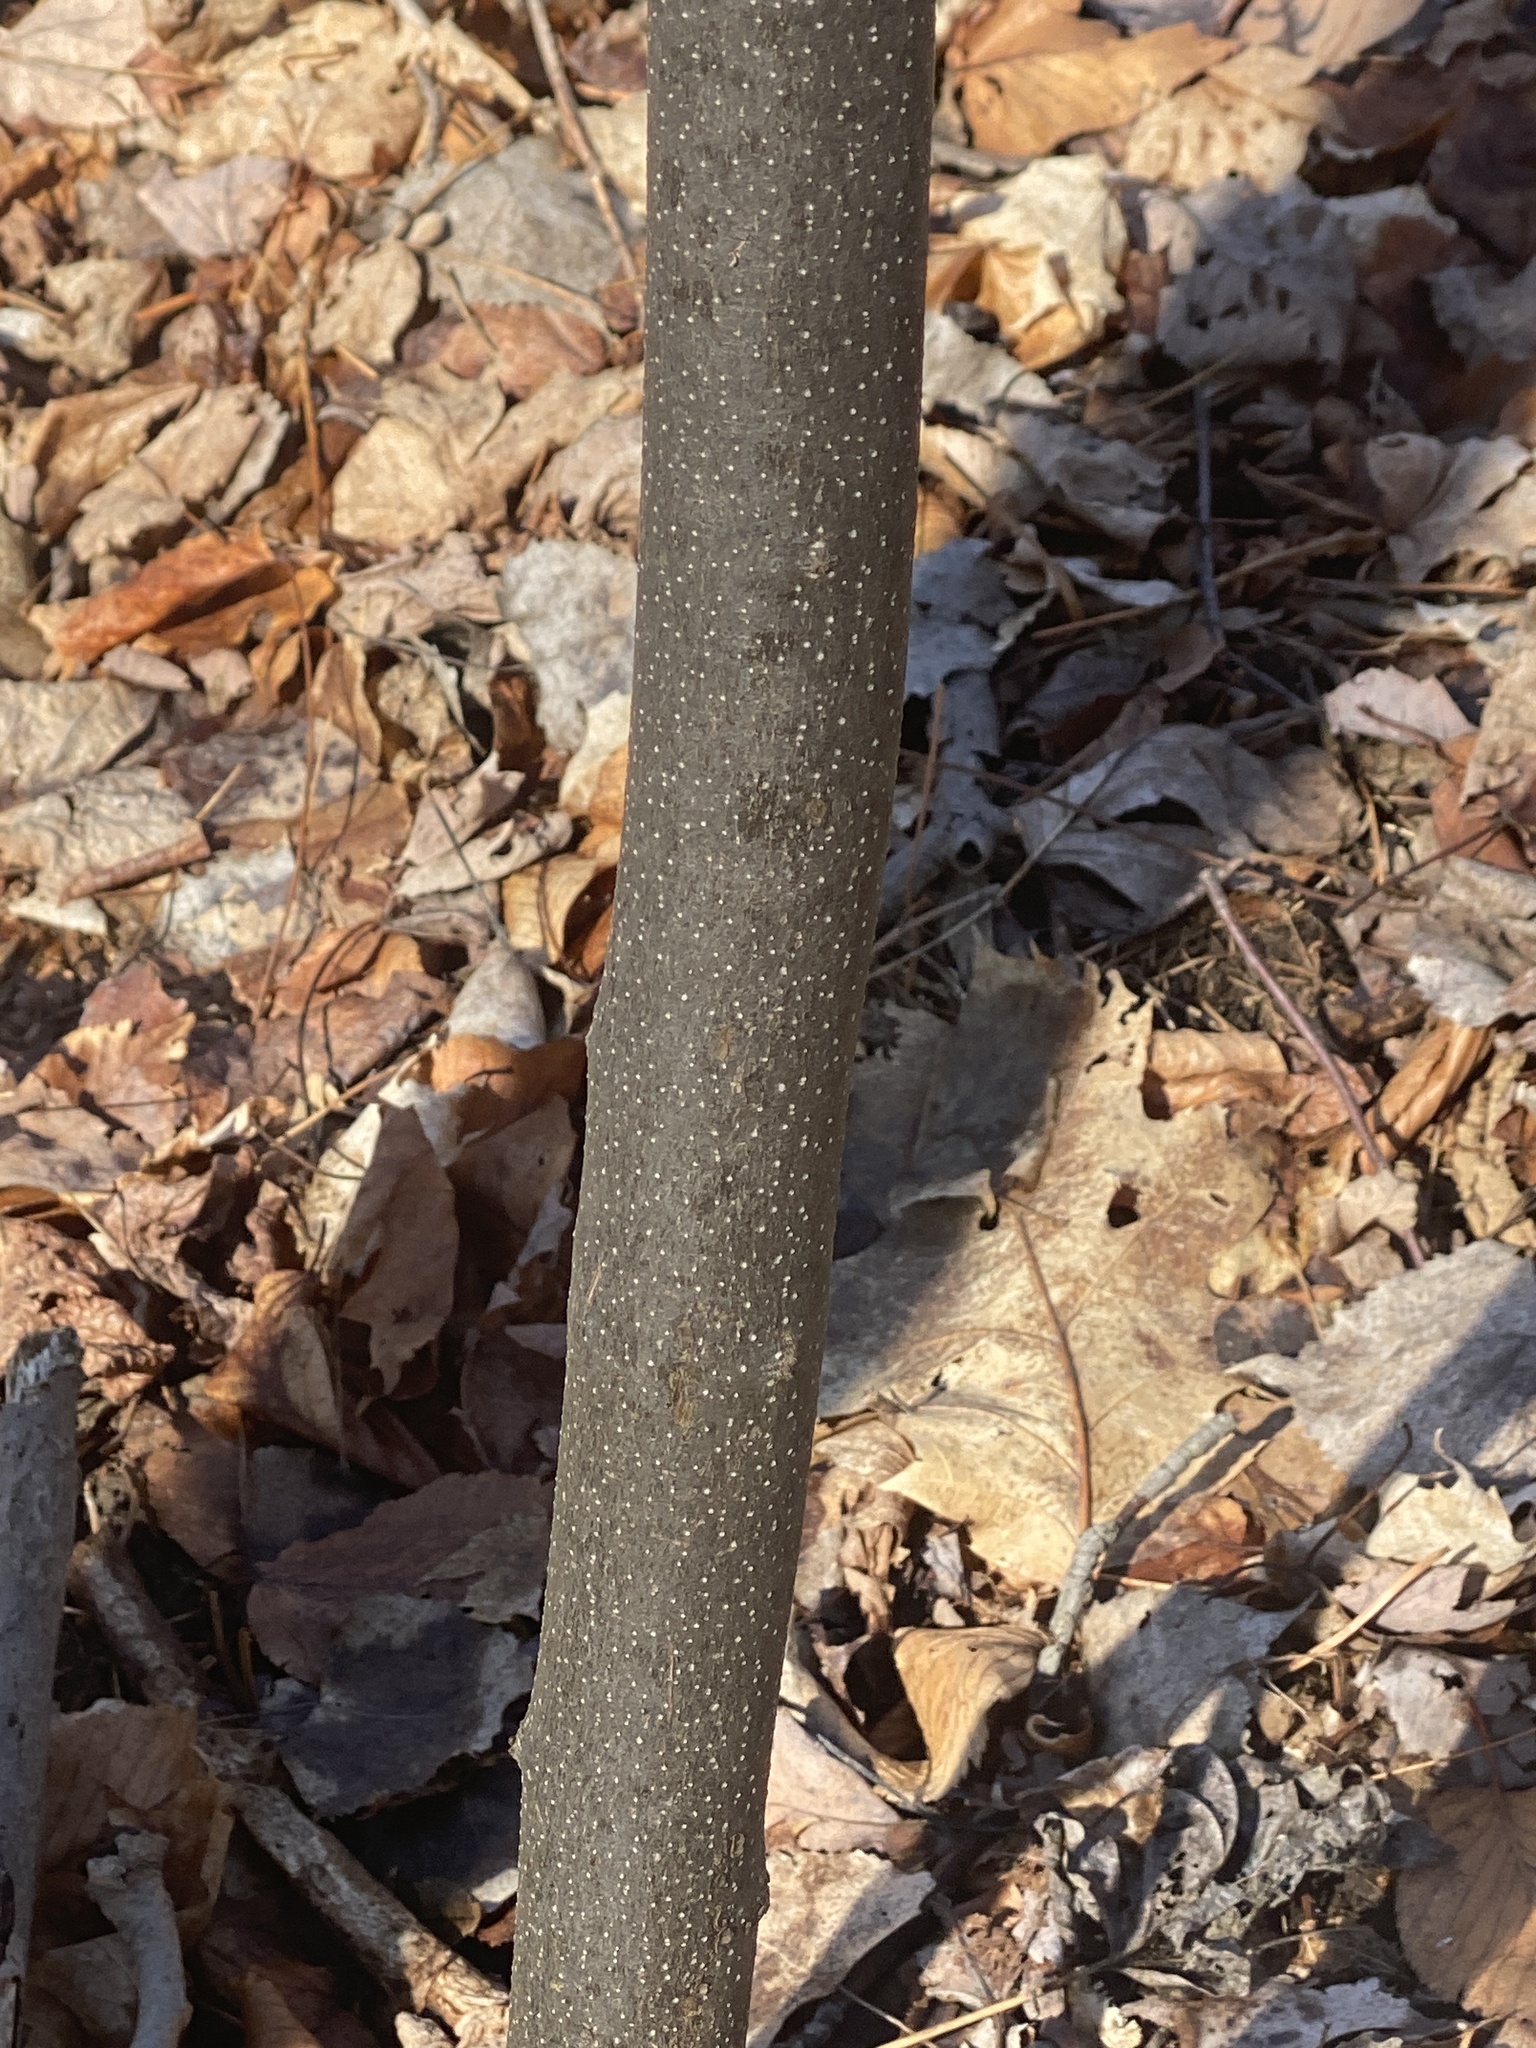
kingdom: Plantae
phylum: Tracheophyta
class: Magnoliopsida
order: Laurales
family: Lauraceae
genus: Lindera
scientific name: Lindera benzoin
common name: Spicebush
